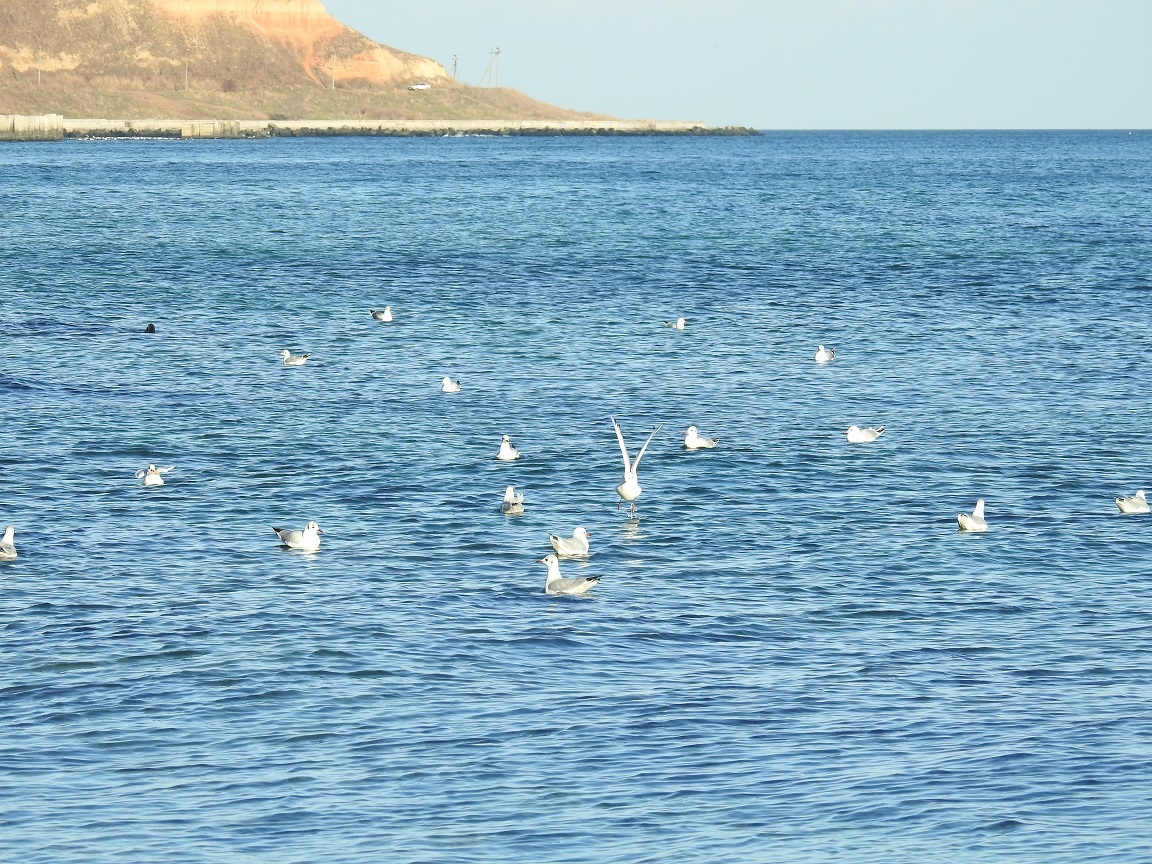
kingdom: Animalia
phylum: Chordata
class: Aves
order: Charadriiformes
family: Laridae
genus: Chroicocephalus
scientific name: Chroicocephalus ridibundus
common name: Black-headed gull
